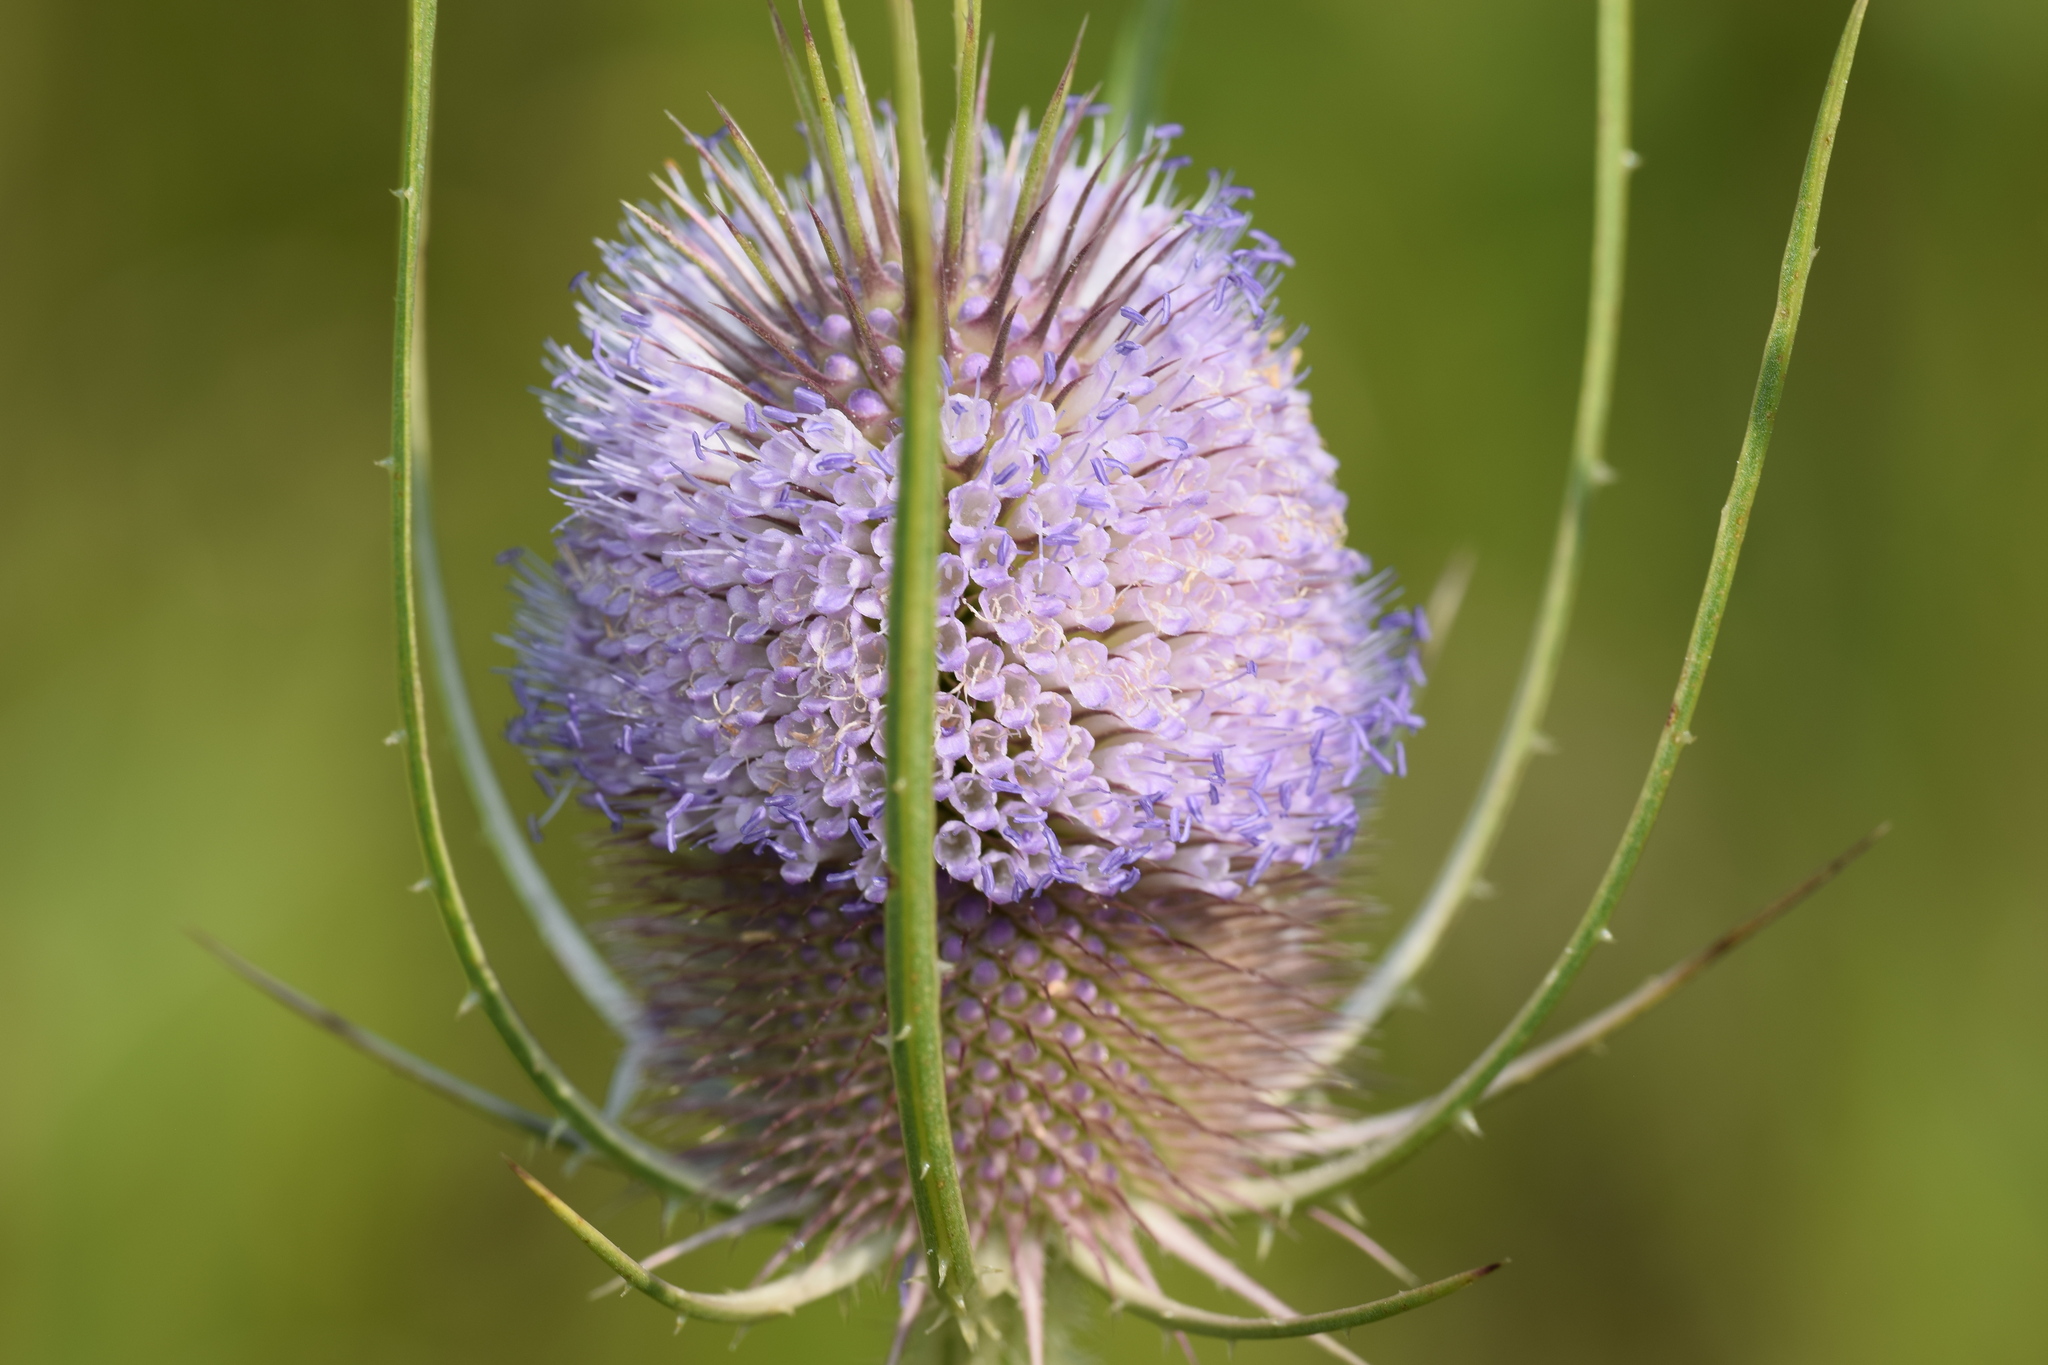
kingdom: Plantae
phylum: Tracheophyta
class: Magnoliopsida
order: Dipsacales
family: Caprifoliaceae
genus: Dipsacus
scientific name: Dipsacus fullonum
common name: Teasel
